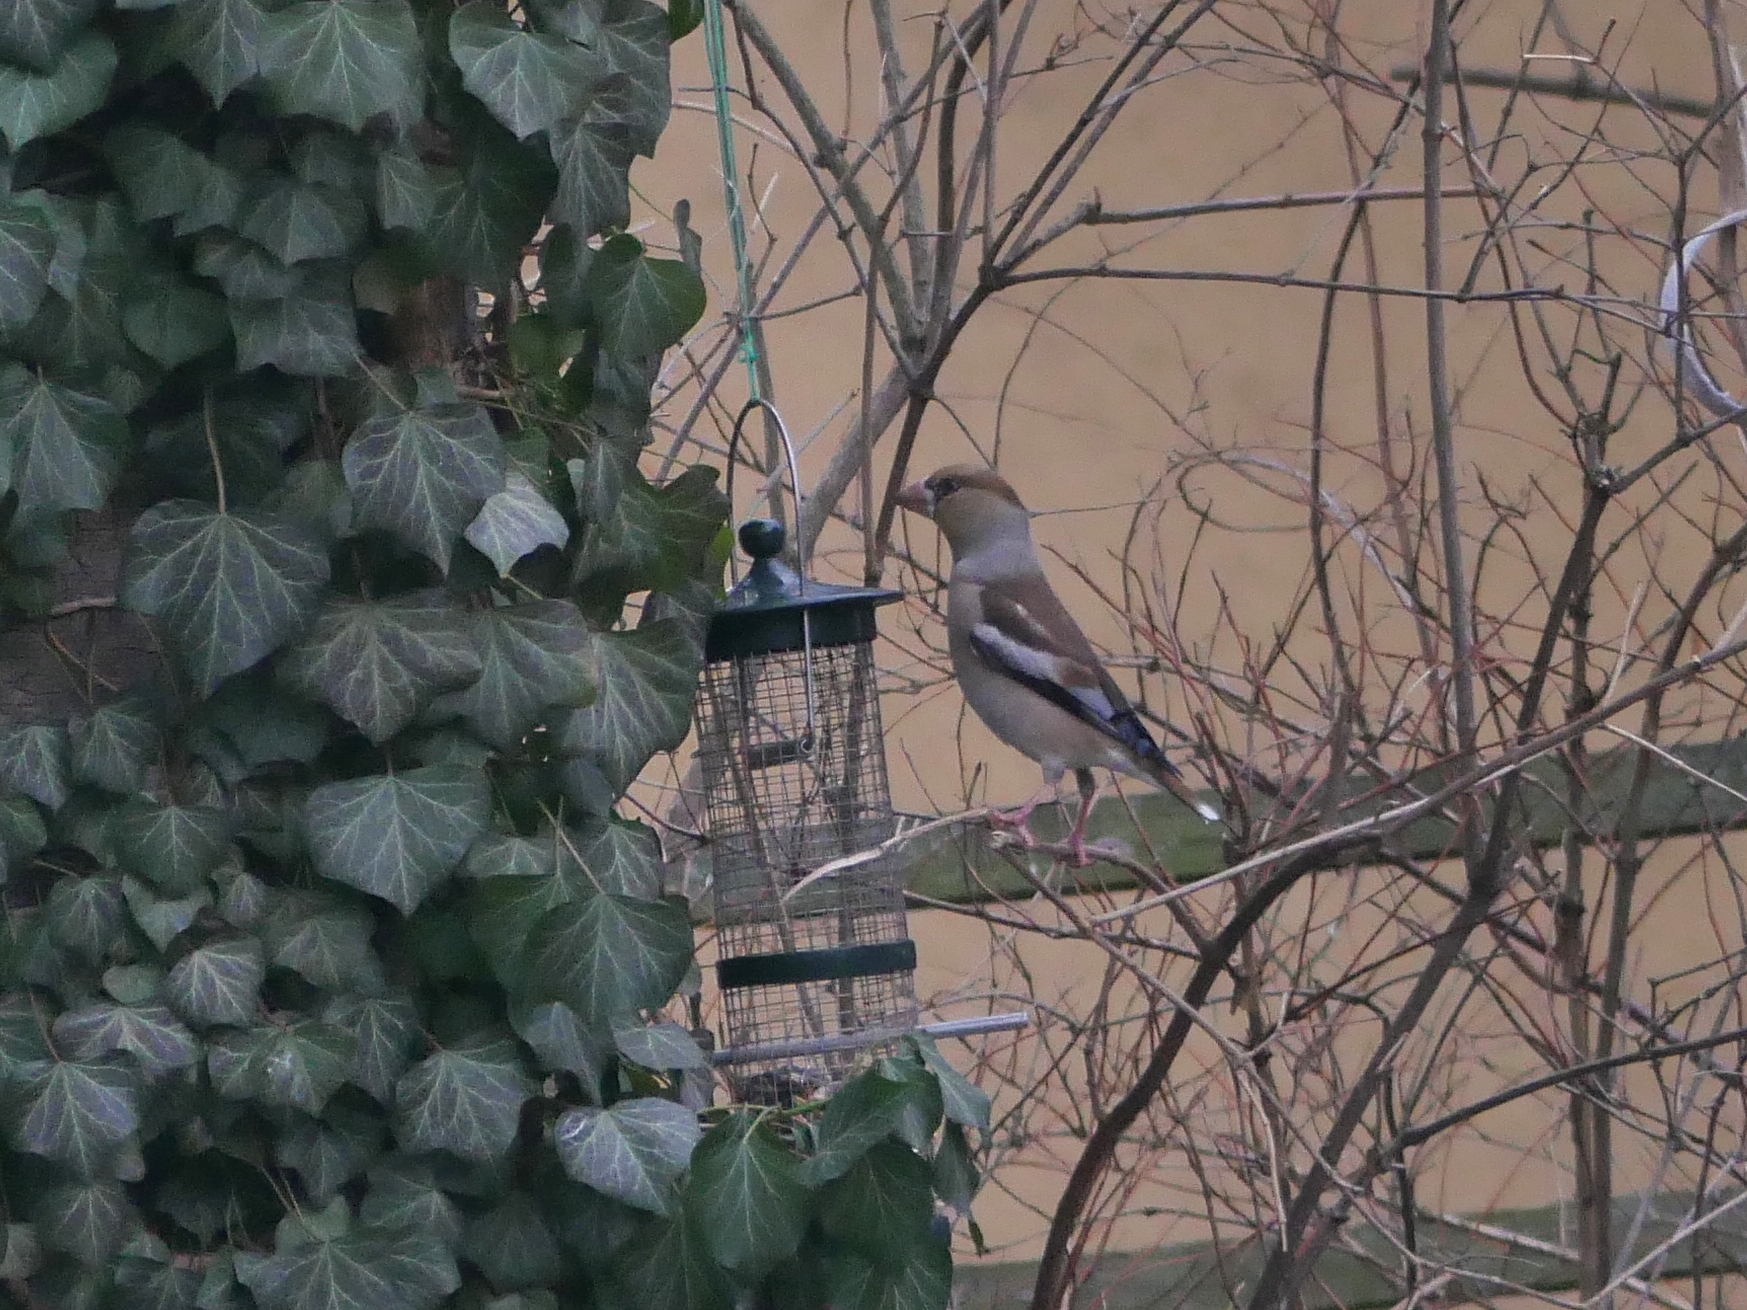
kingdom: Animalia
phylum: Chordata
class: Aves
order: Passeriformes
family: Fringillidae
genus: Coccothraustes
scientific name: Coccothraustes coccothraustes
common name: Hawfinch
